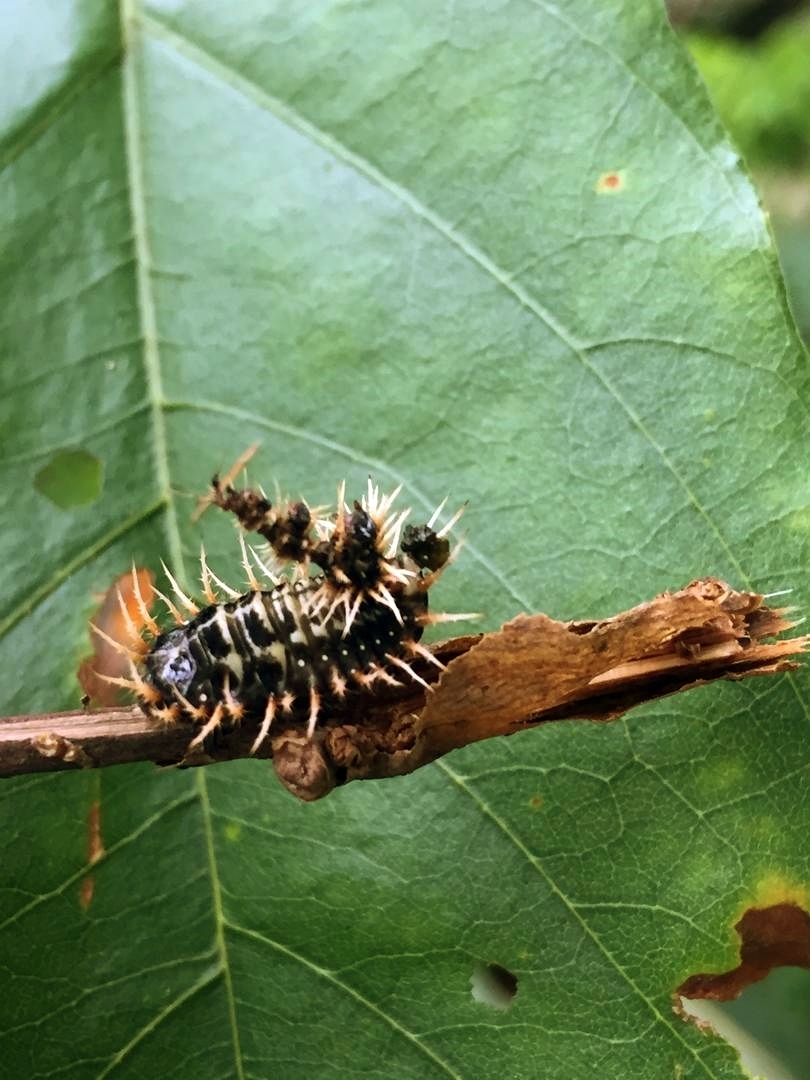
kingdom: Animalia
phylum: Arthropoda
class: Insecta
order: Coleoptera
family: Chrysomelidae
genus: Aspidimorpha
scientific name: Aspidimorpha angolensis
